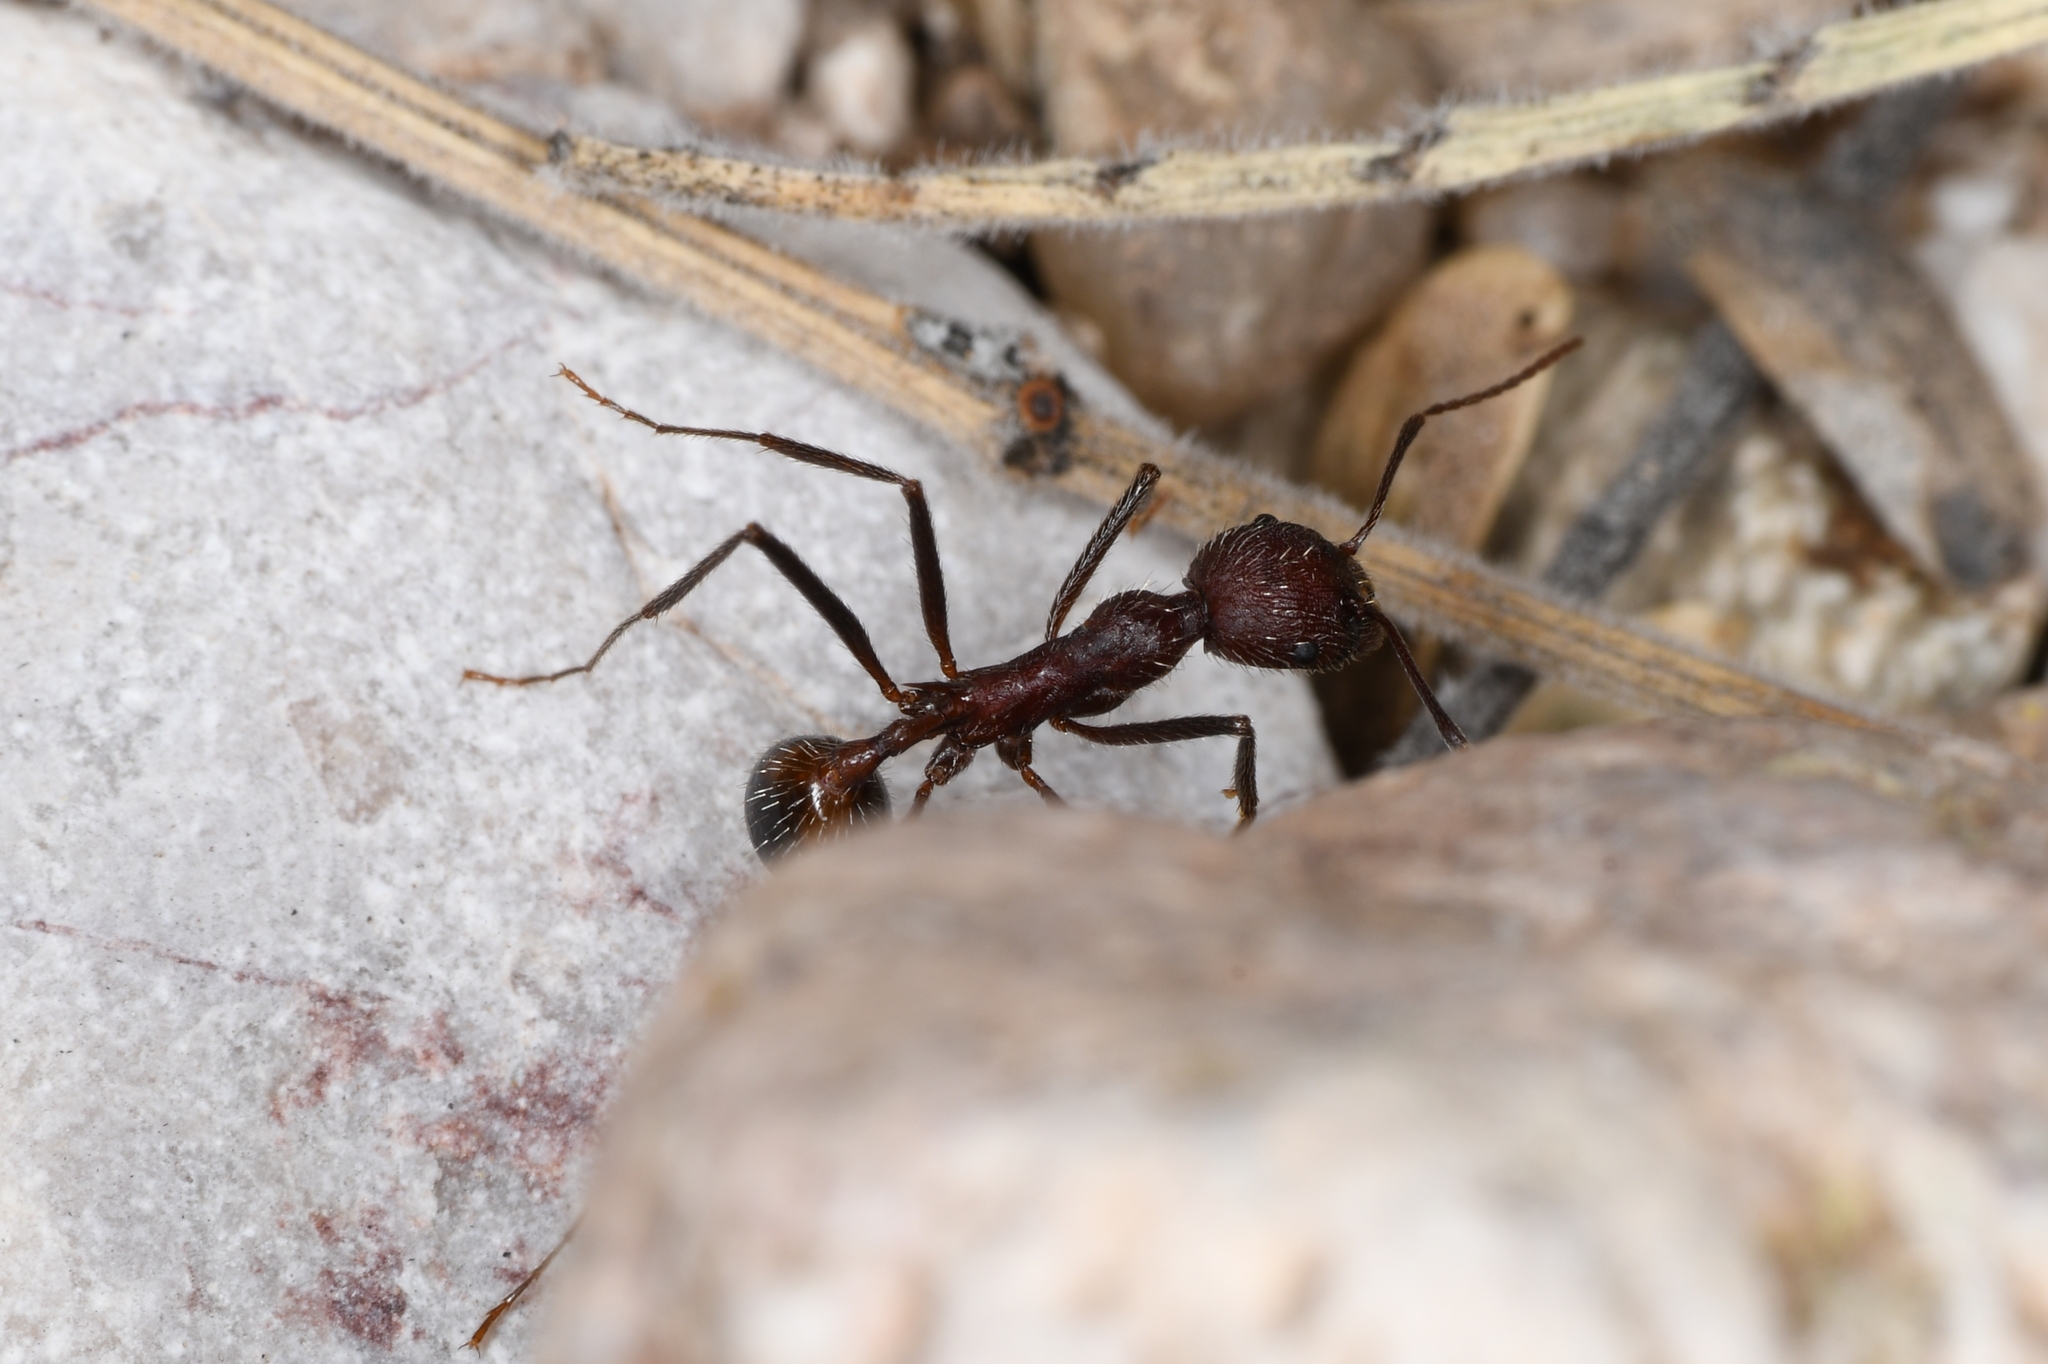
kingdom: Animalia
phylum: Arthropoda
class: Insecta
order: Hymenoptera
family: Formicidae
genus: Novomessor
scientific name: Novomessor albisetosa
